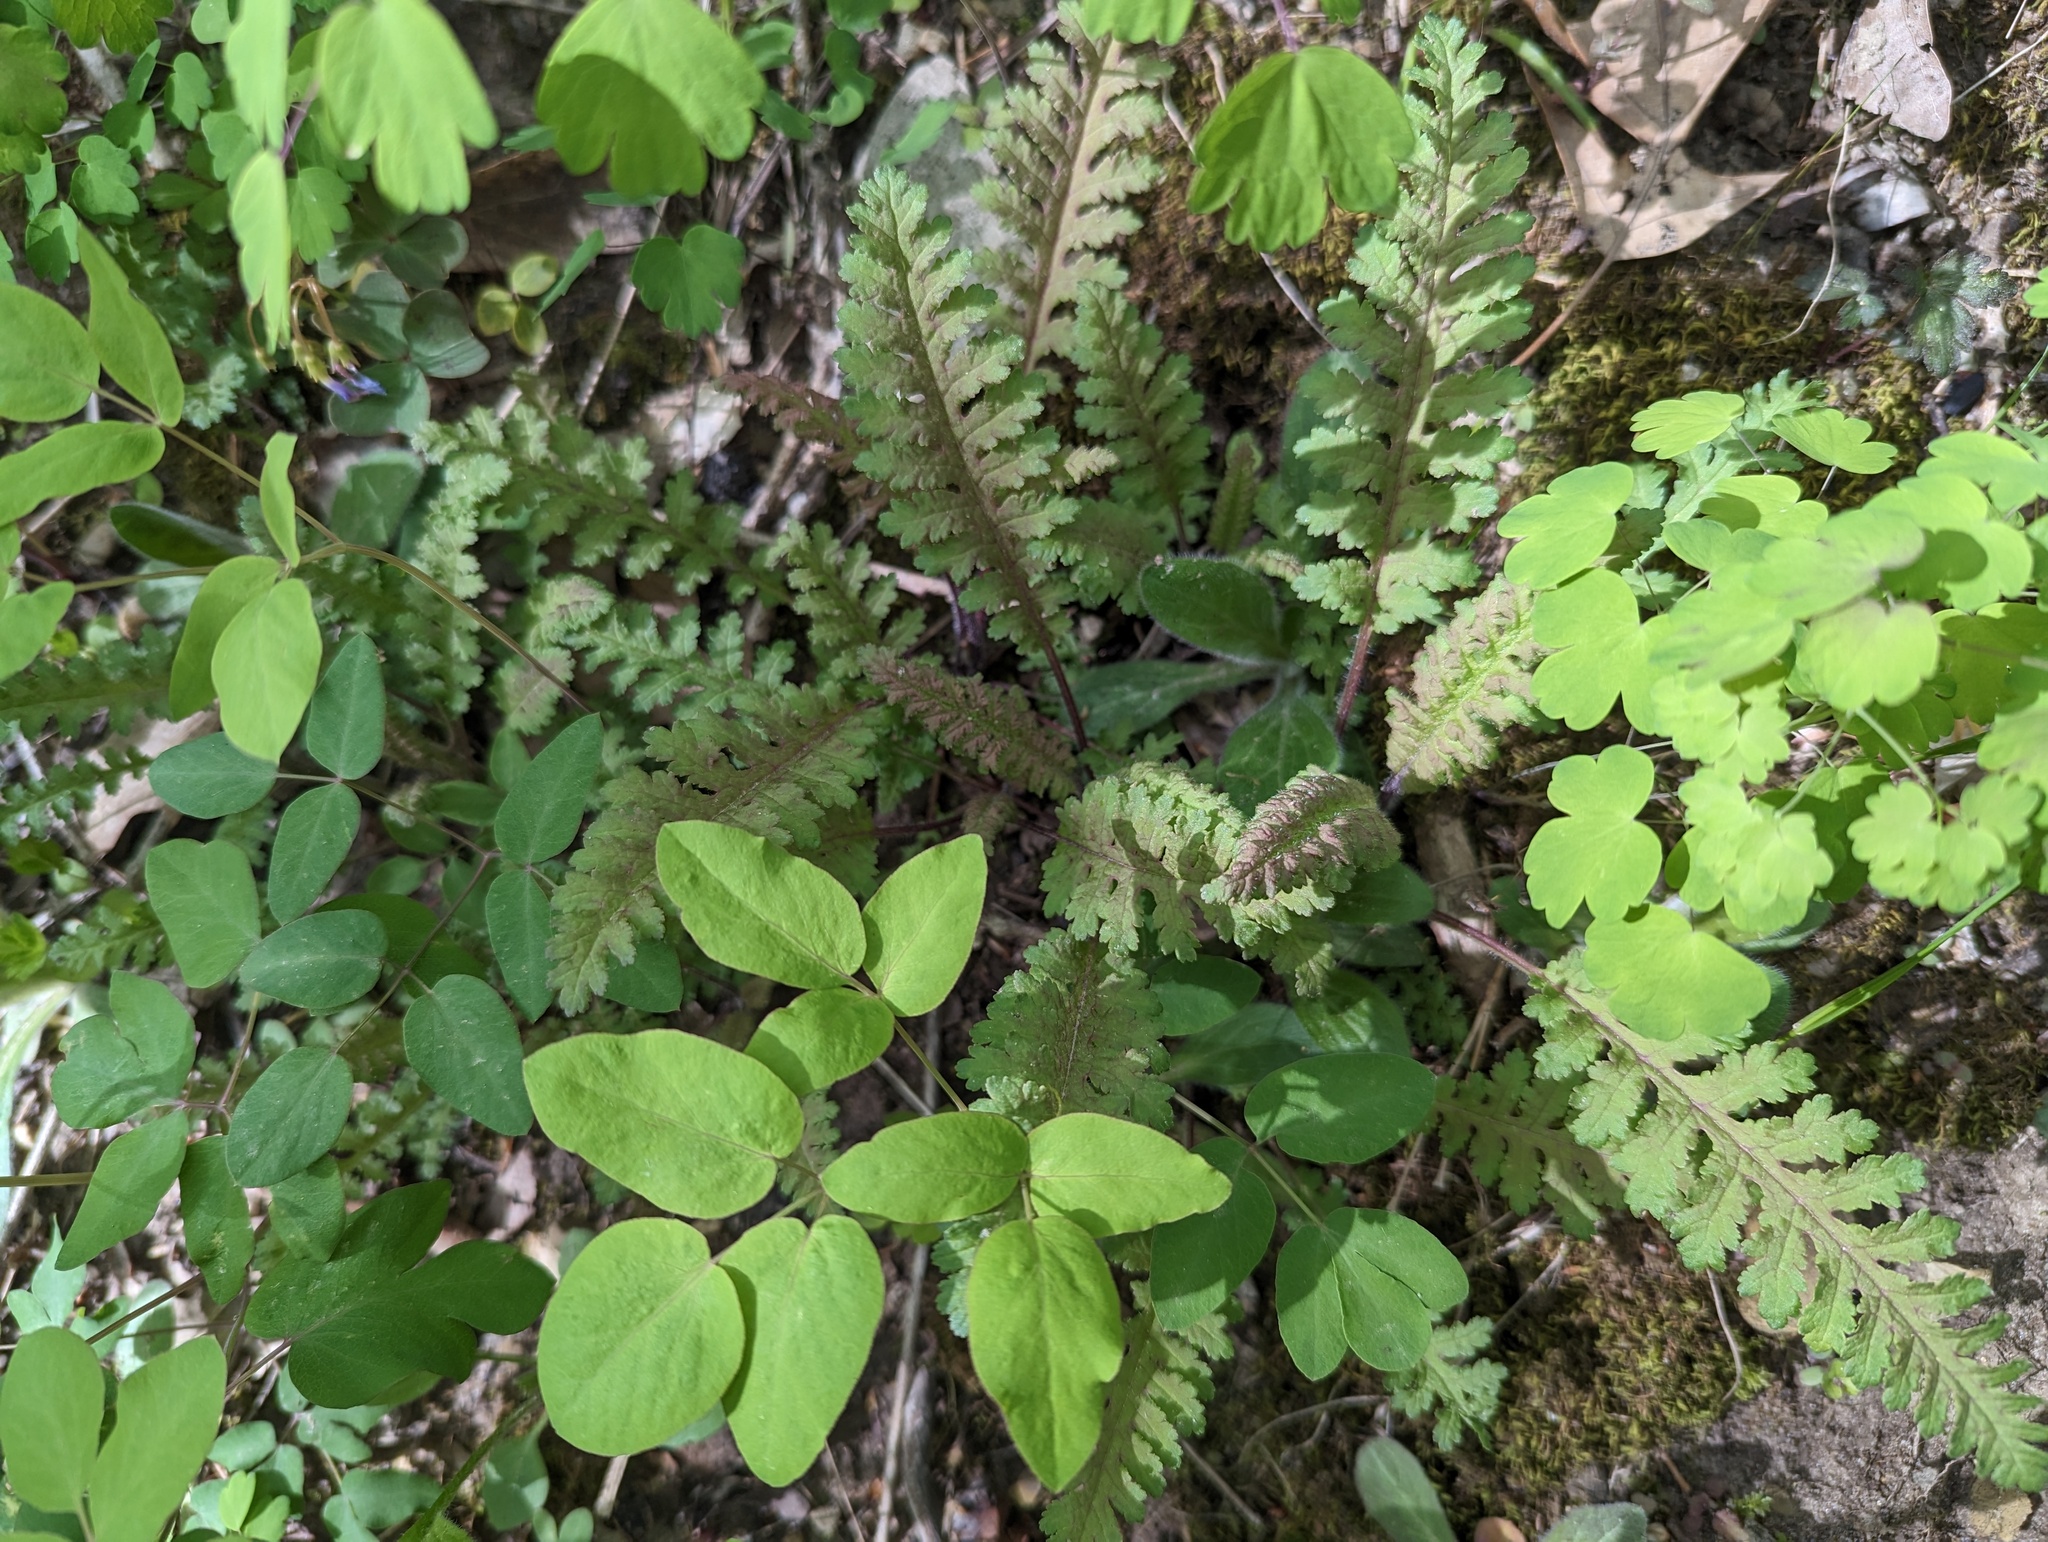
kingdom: Plantae
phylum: Tracheophyta
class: Magnoliopsida
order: Lamiales
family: Orobanchaceae
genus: Pedicularis
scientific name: Pedicularis canadensis
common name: Early lousewort
